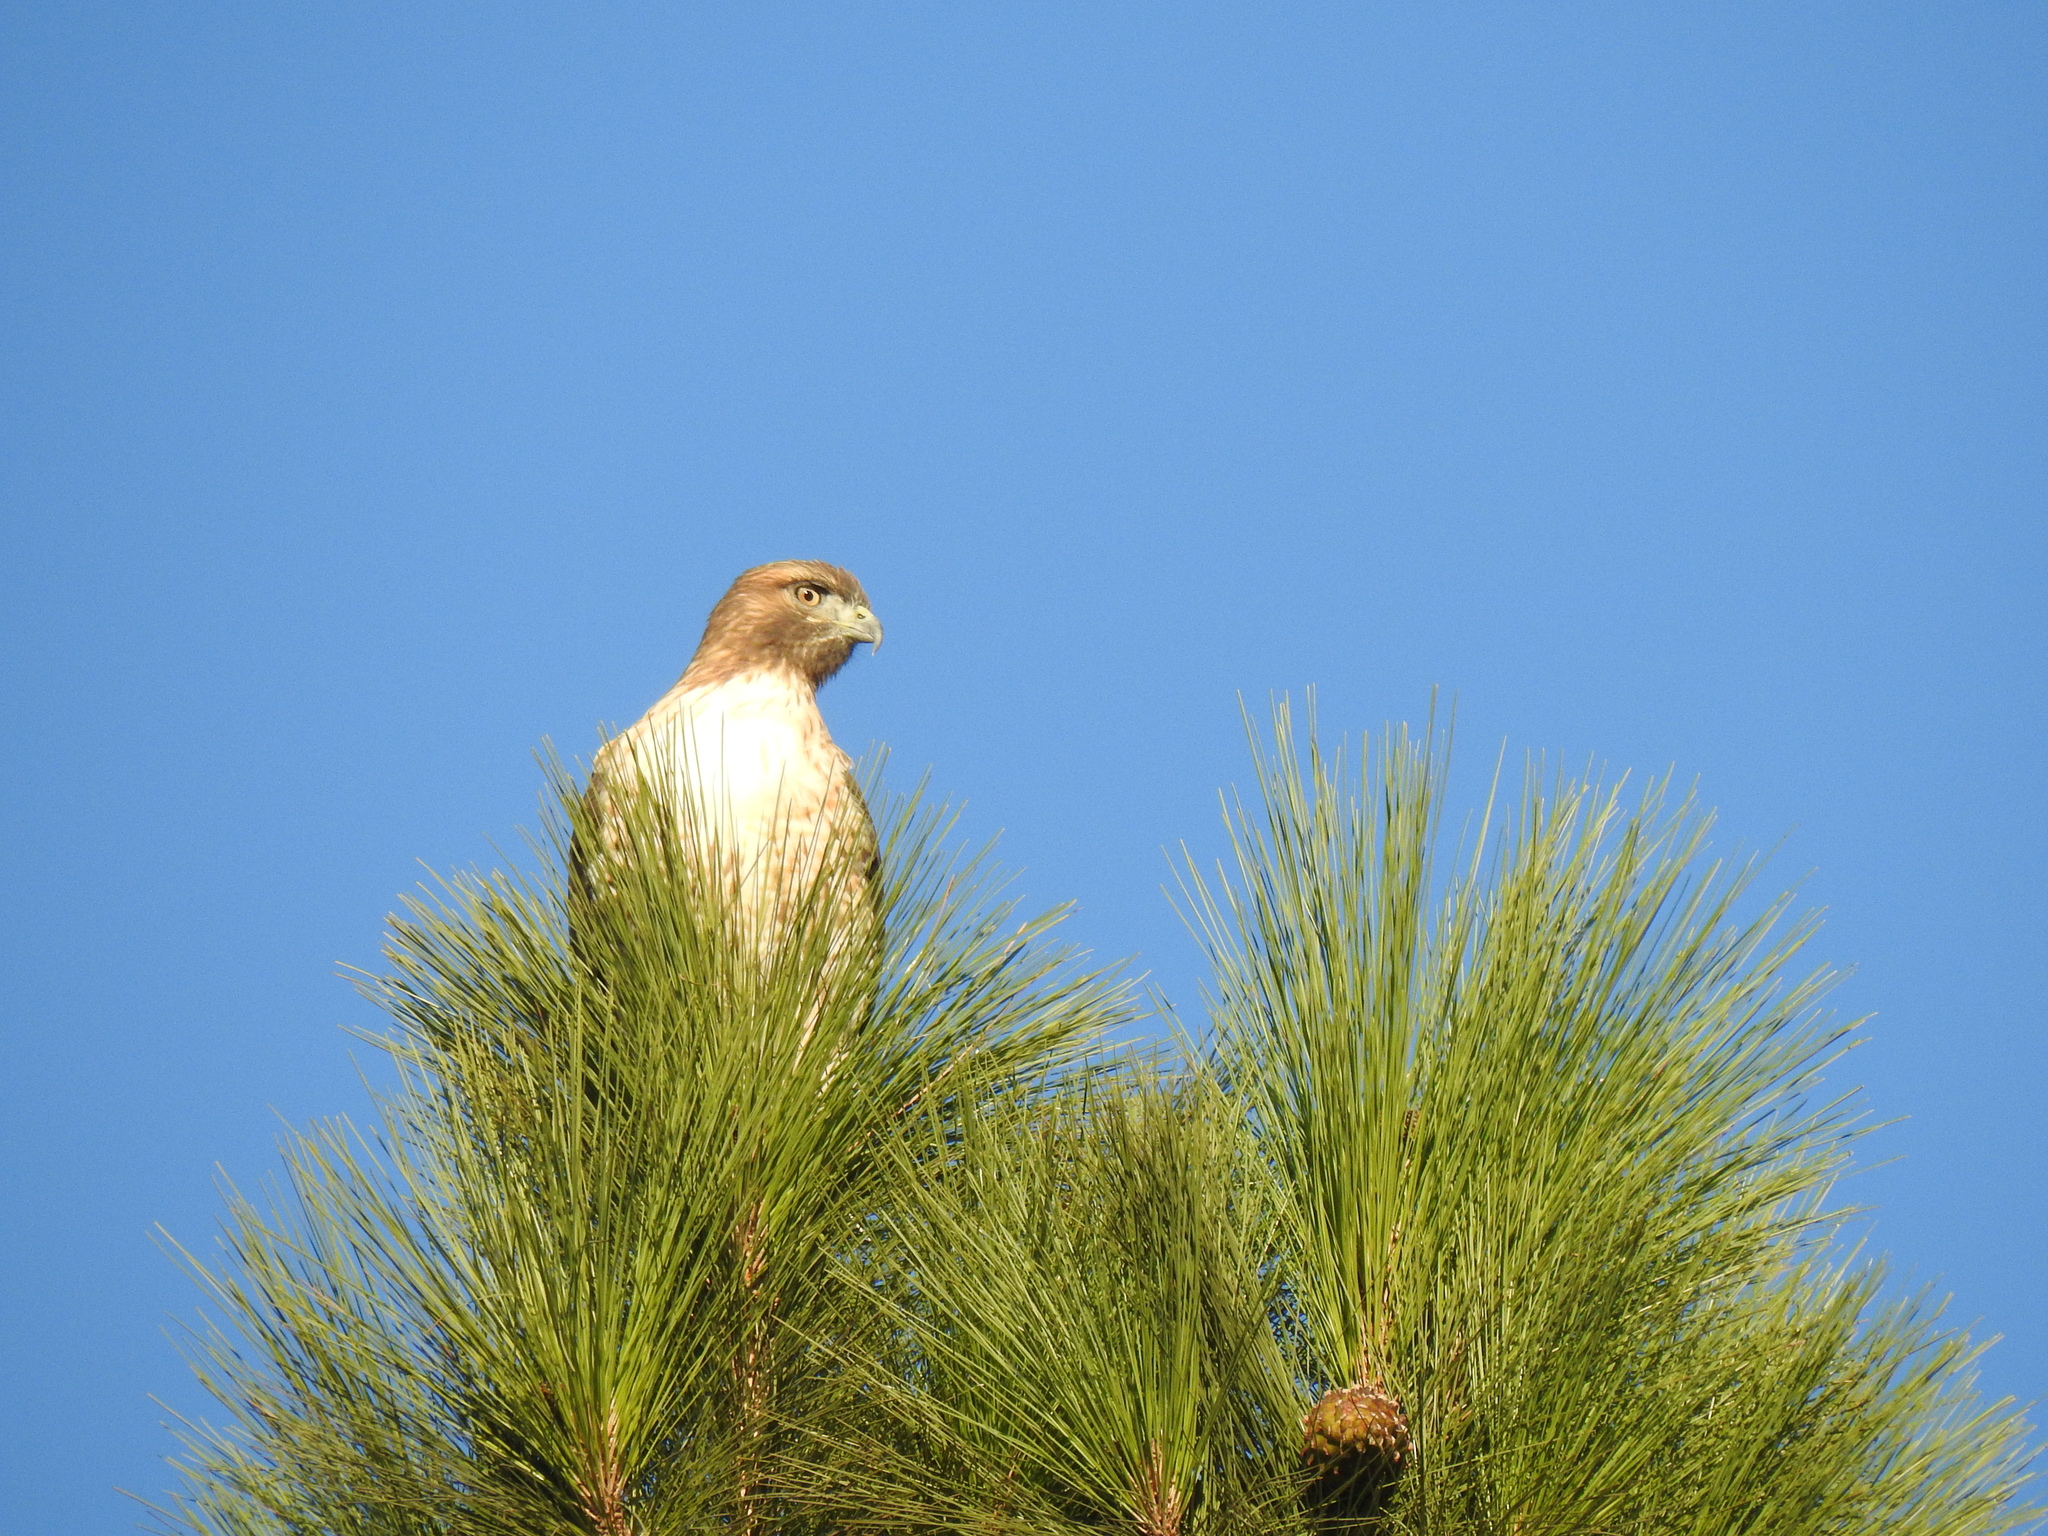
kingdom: Animalia
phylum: Chordata
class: Aves
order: Accipitriformes
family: Accipitridae
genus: Buteo
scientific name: Buteo jamaicensis
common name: Red-tailed hawk
